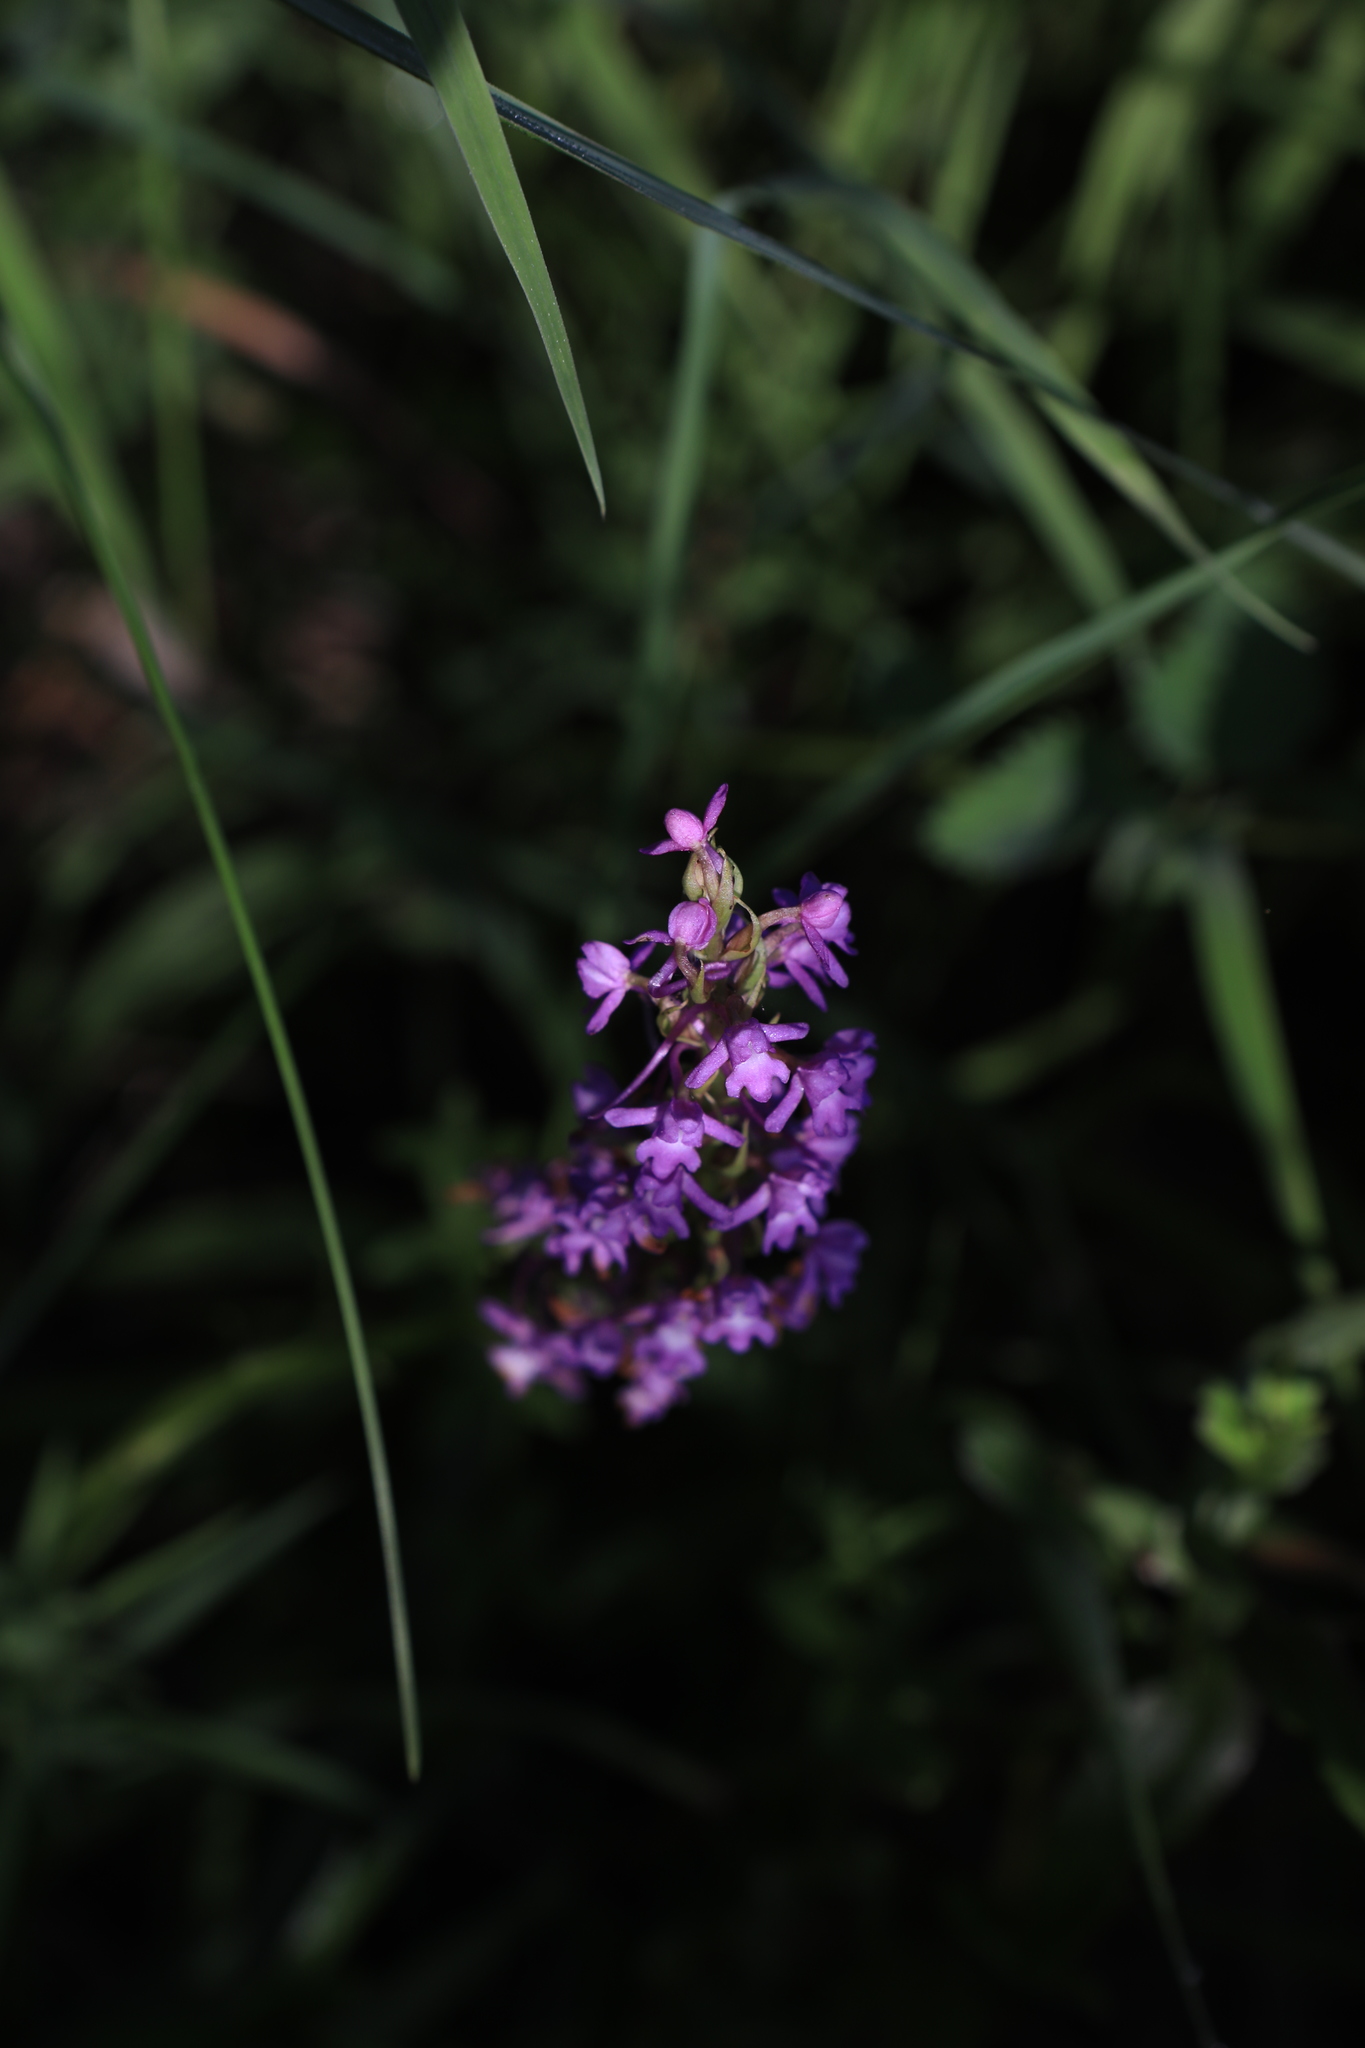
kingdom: Plantae
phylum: Tracheophyta
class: Liliopsida
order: Asparagales
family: Orchidaceae
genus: Gymnadenia
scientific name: Gymnadenia conopsea
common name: Fragrant orchid
